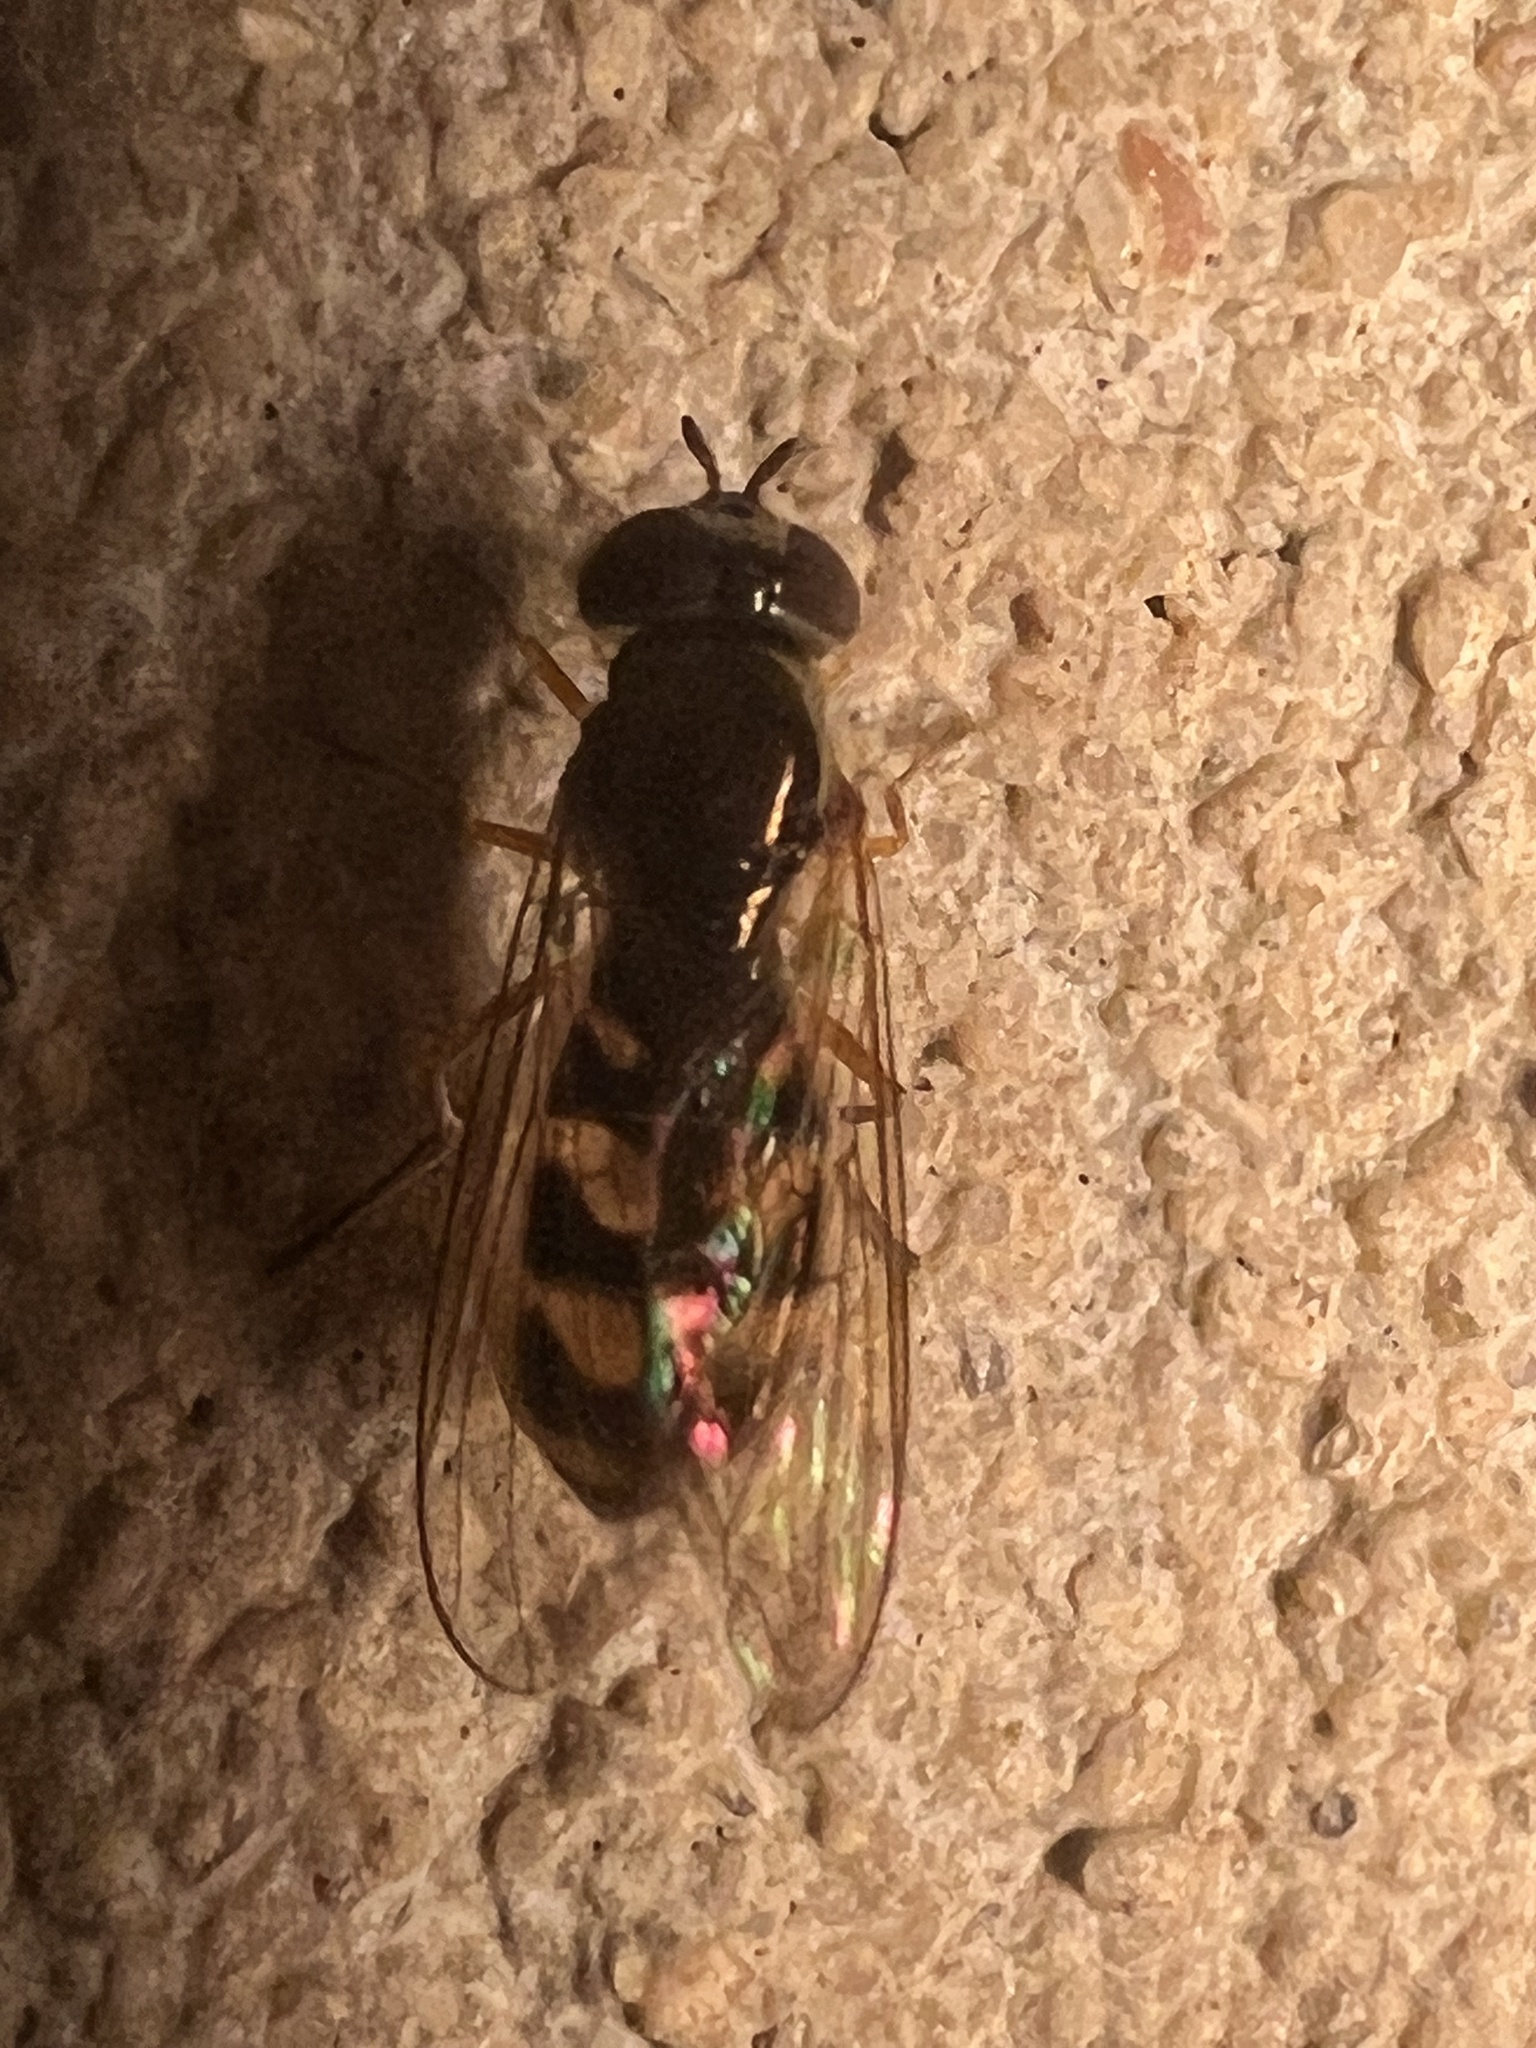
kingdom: Animalia
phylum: Arthropoda
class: Insecta
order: Diptera
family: Syrphidae
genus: Melanostoma
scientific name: Melanostoma mellina
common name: Hover fly
